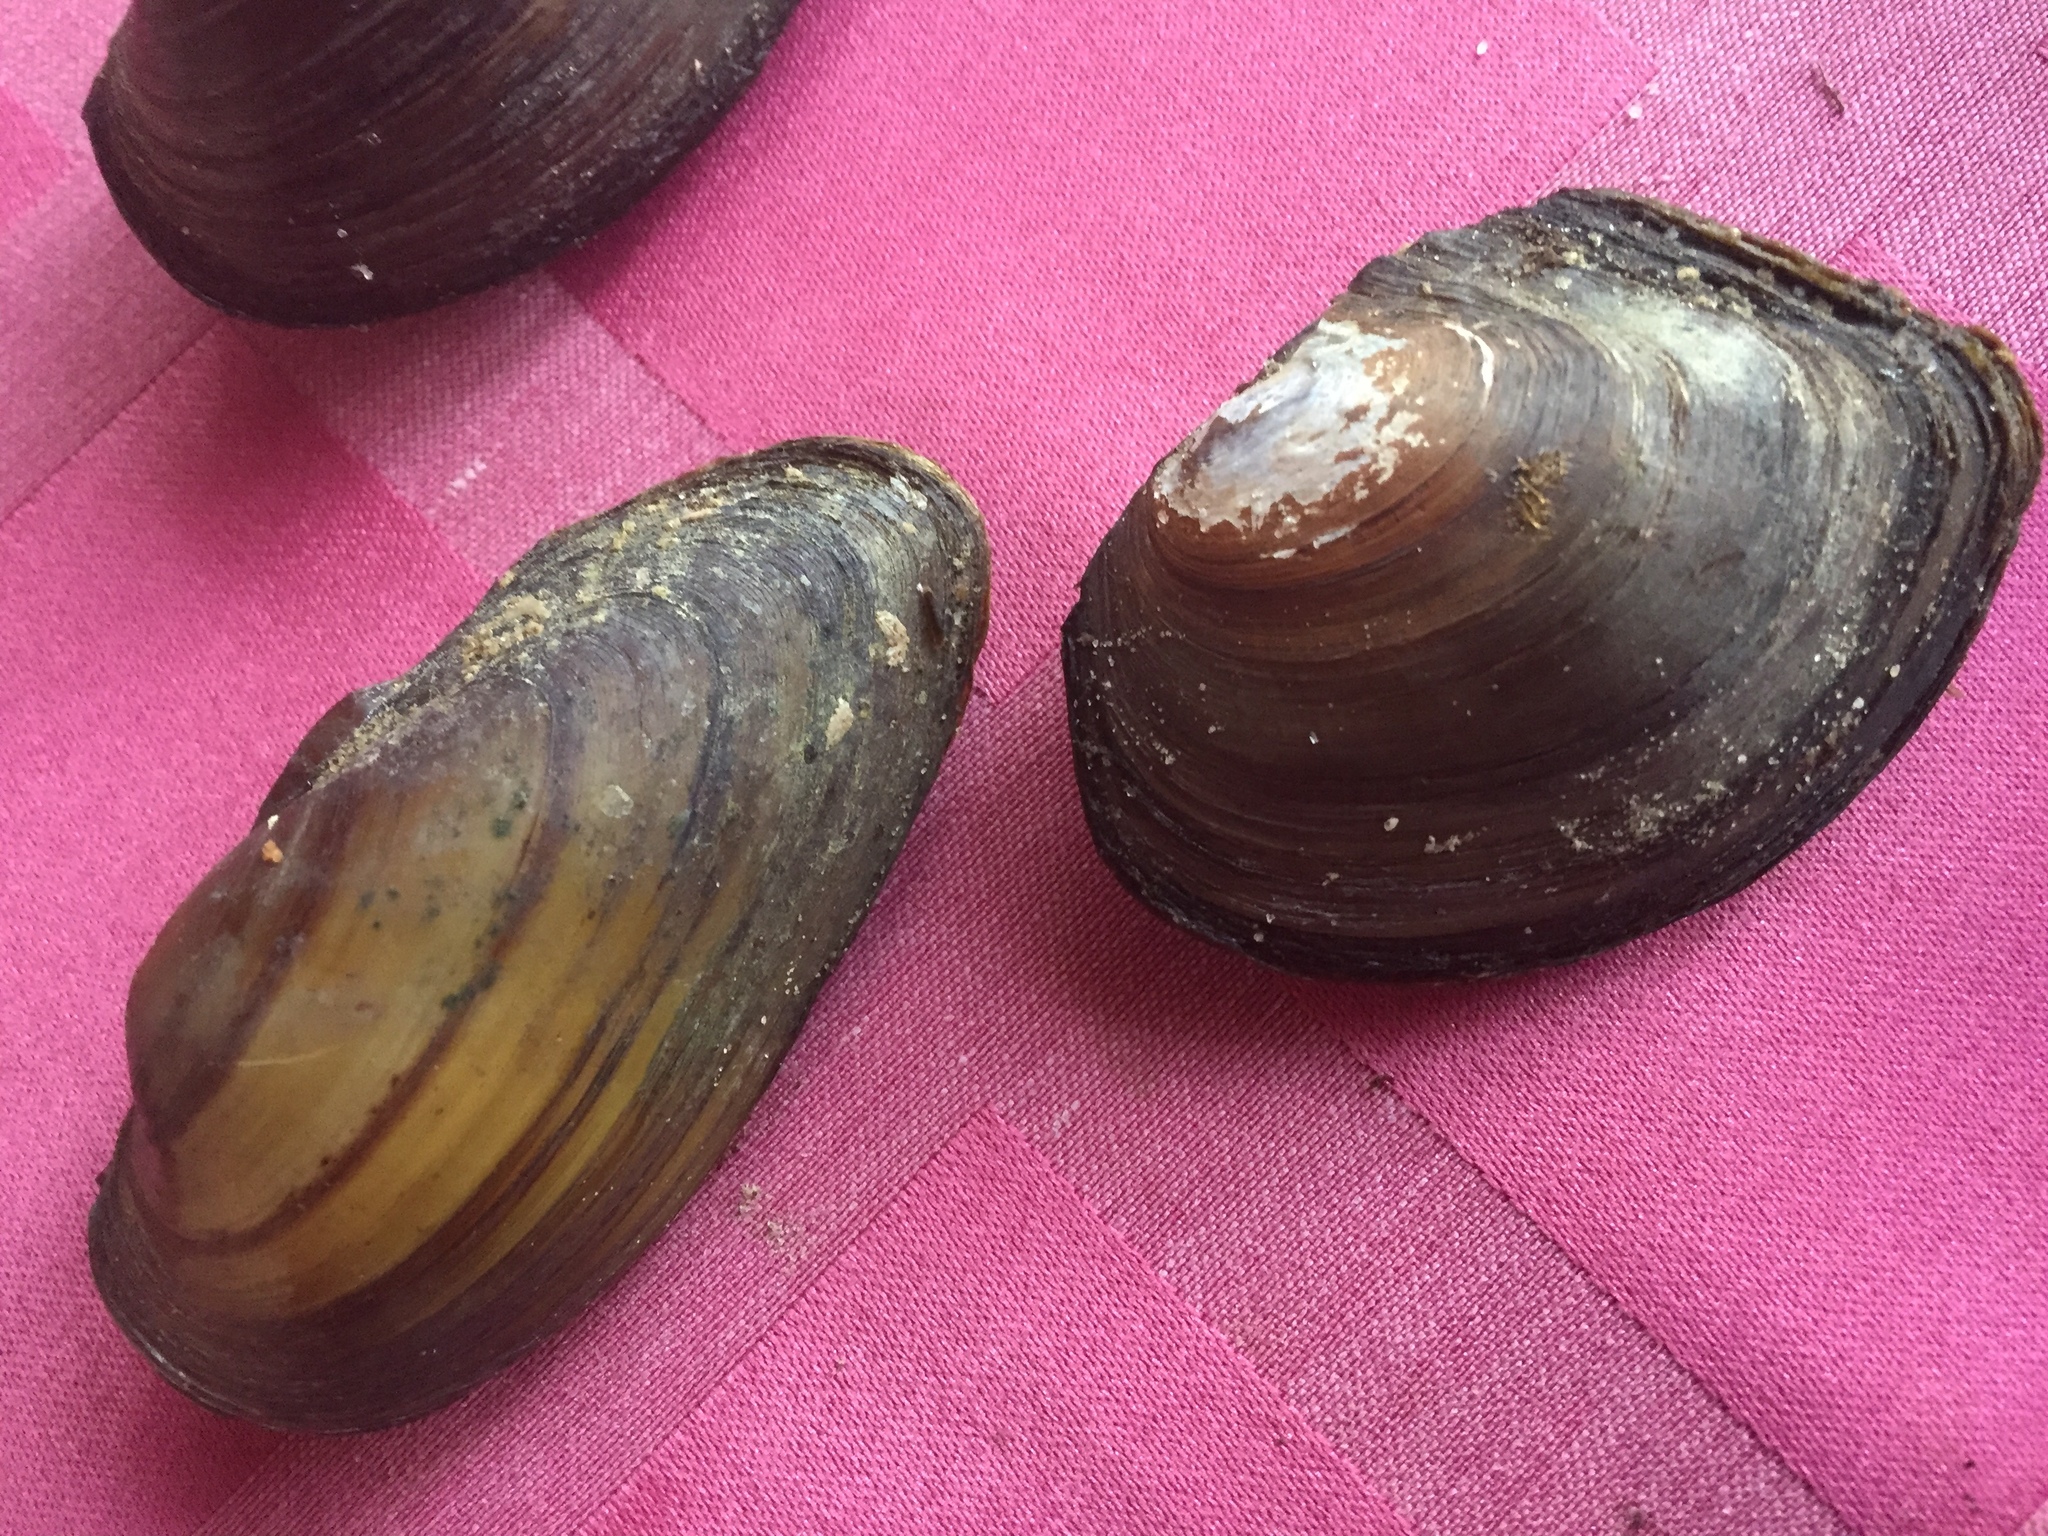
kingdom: Animalia
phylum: Mollusca
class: Bivalvia
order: Unionida
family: Unionidae
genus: Unio
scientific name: Unio pictorum
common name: Painter's mussel
